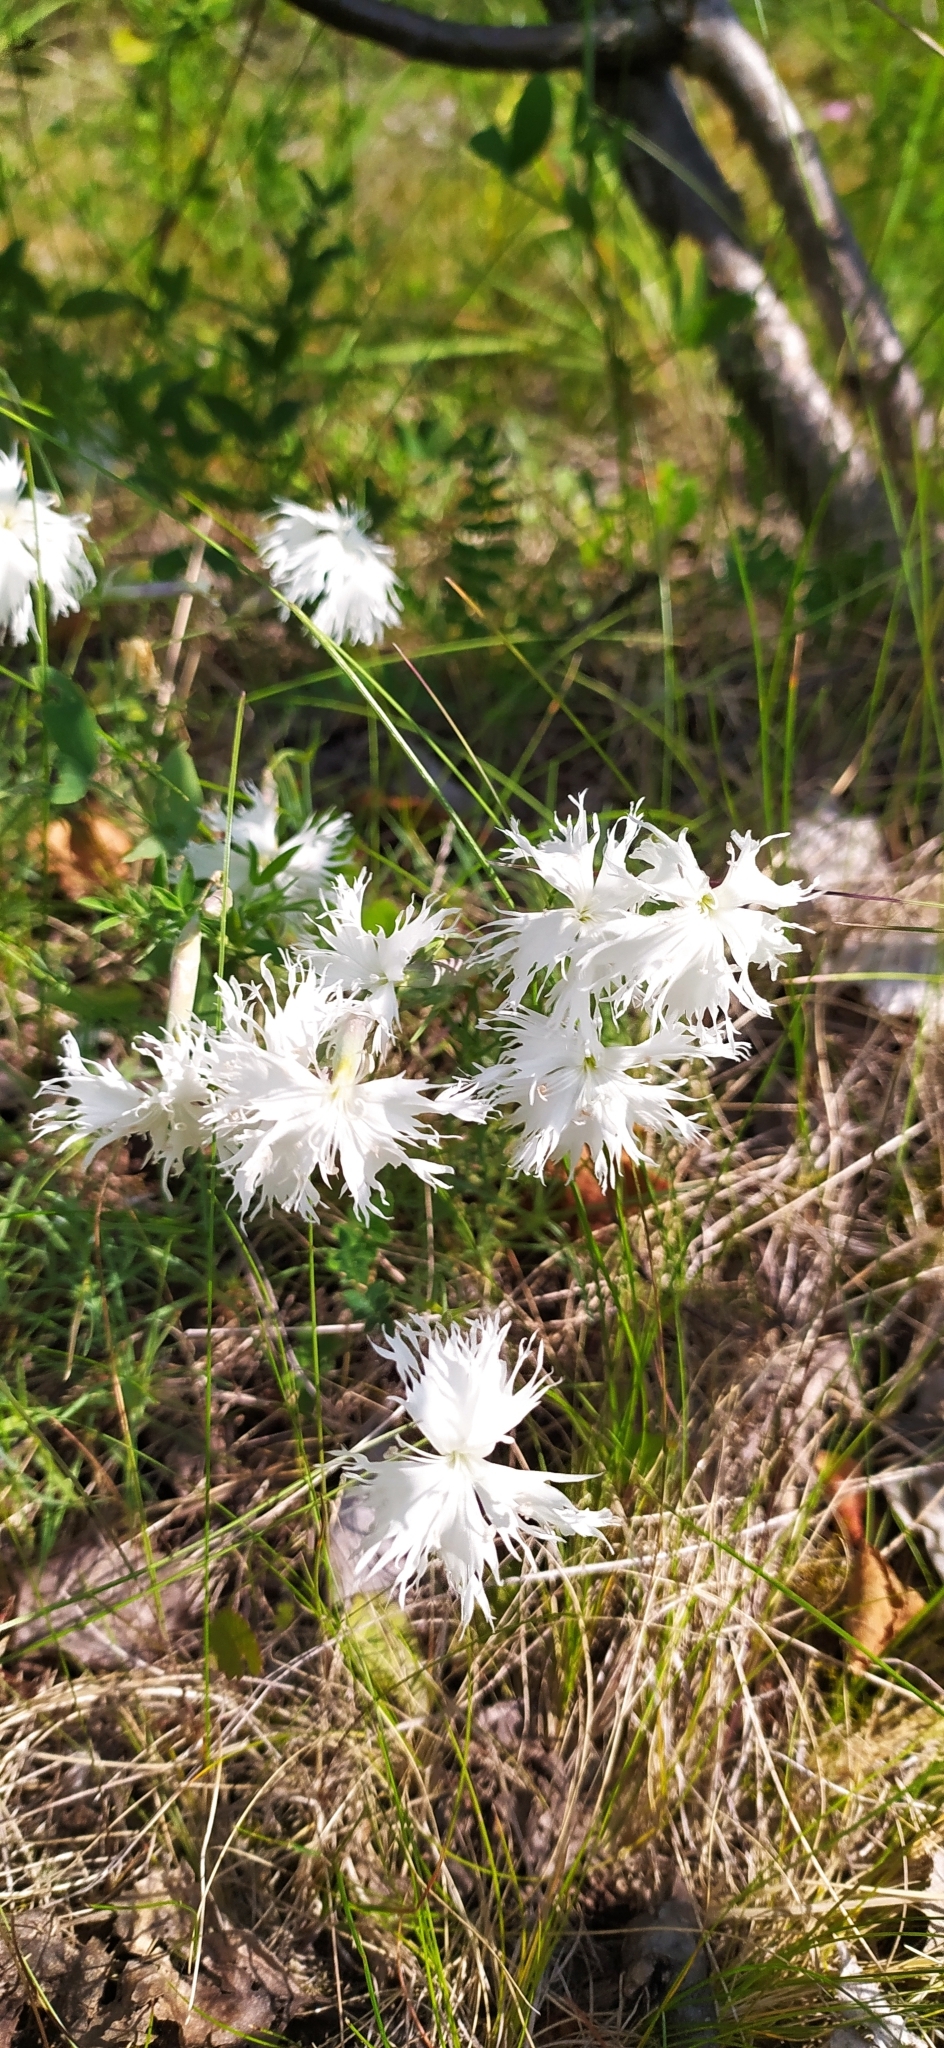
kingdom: Plantae
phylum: Tracheophyta
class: Magnoliopsida
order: Caryophyllales
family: Caryophyllaceae
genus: Dianthus
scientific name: Dianthus acicularis
